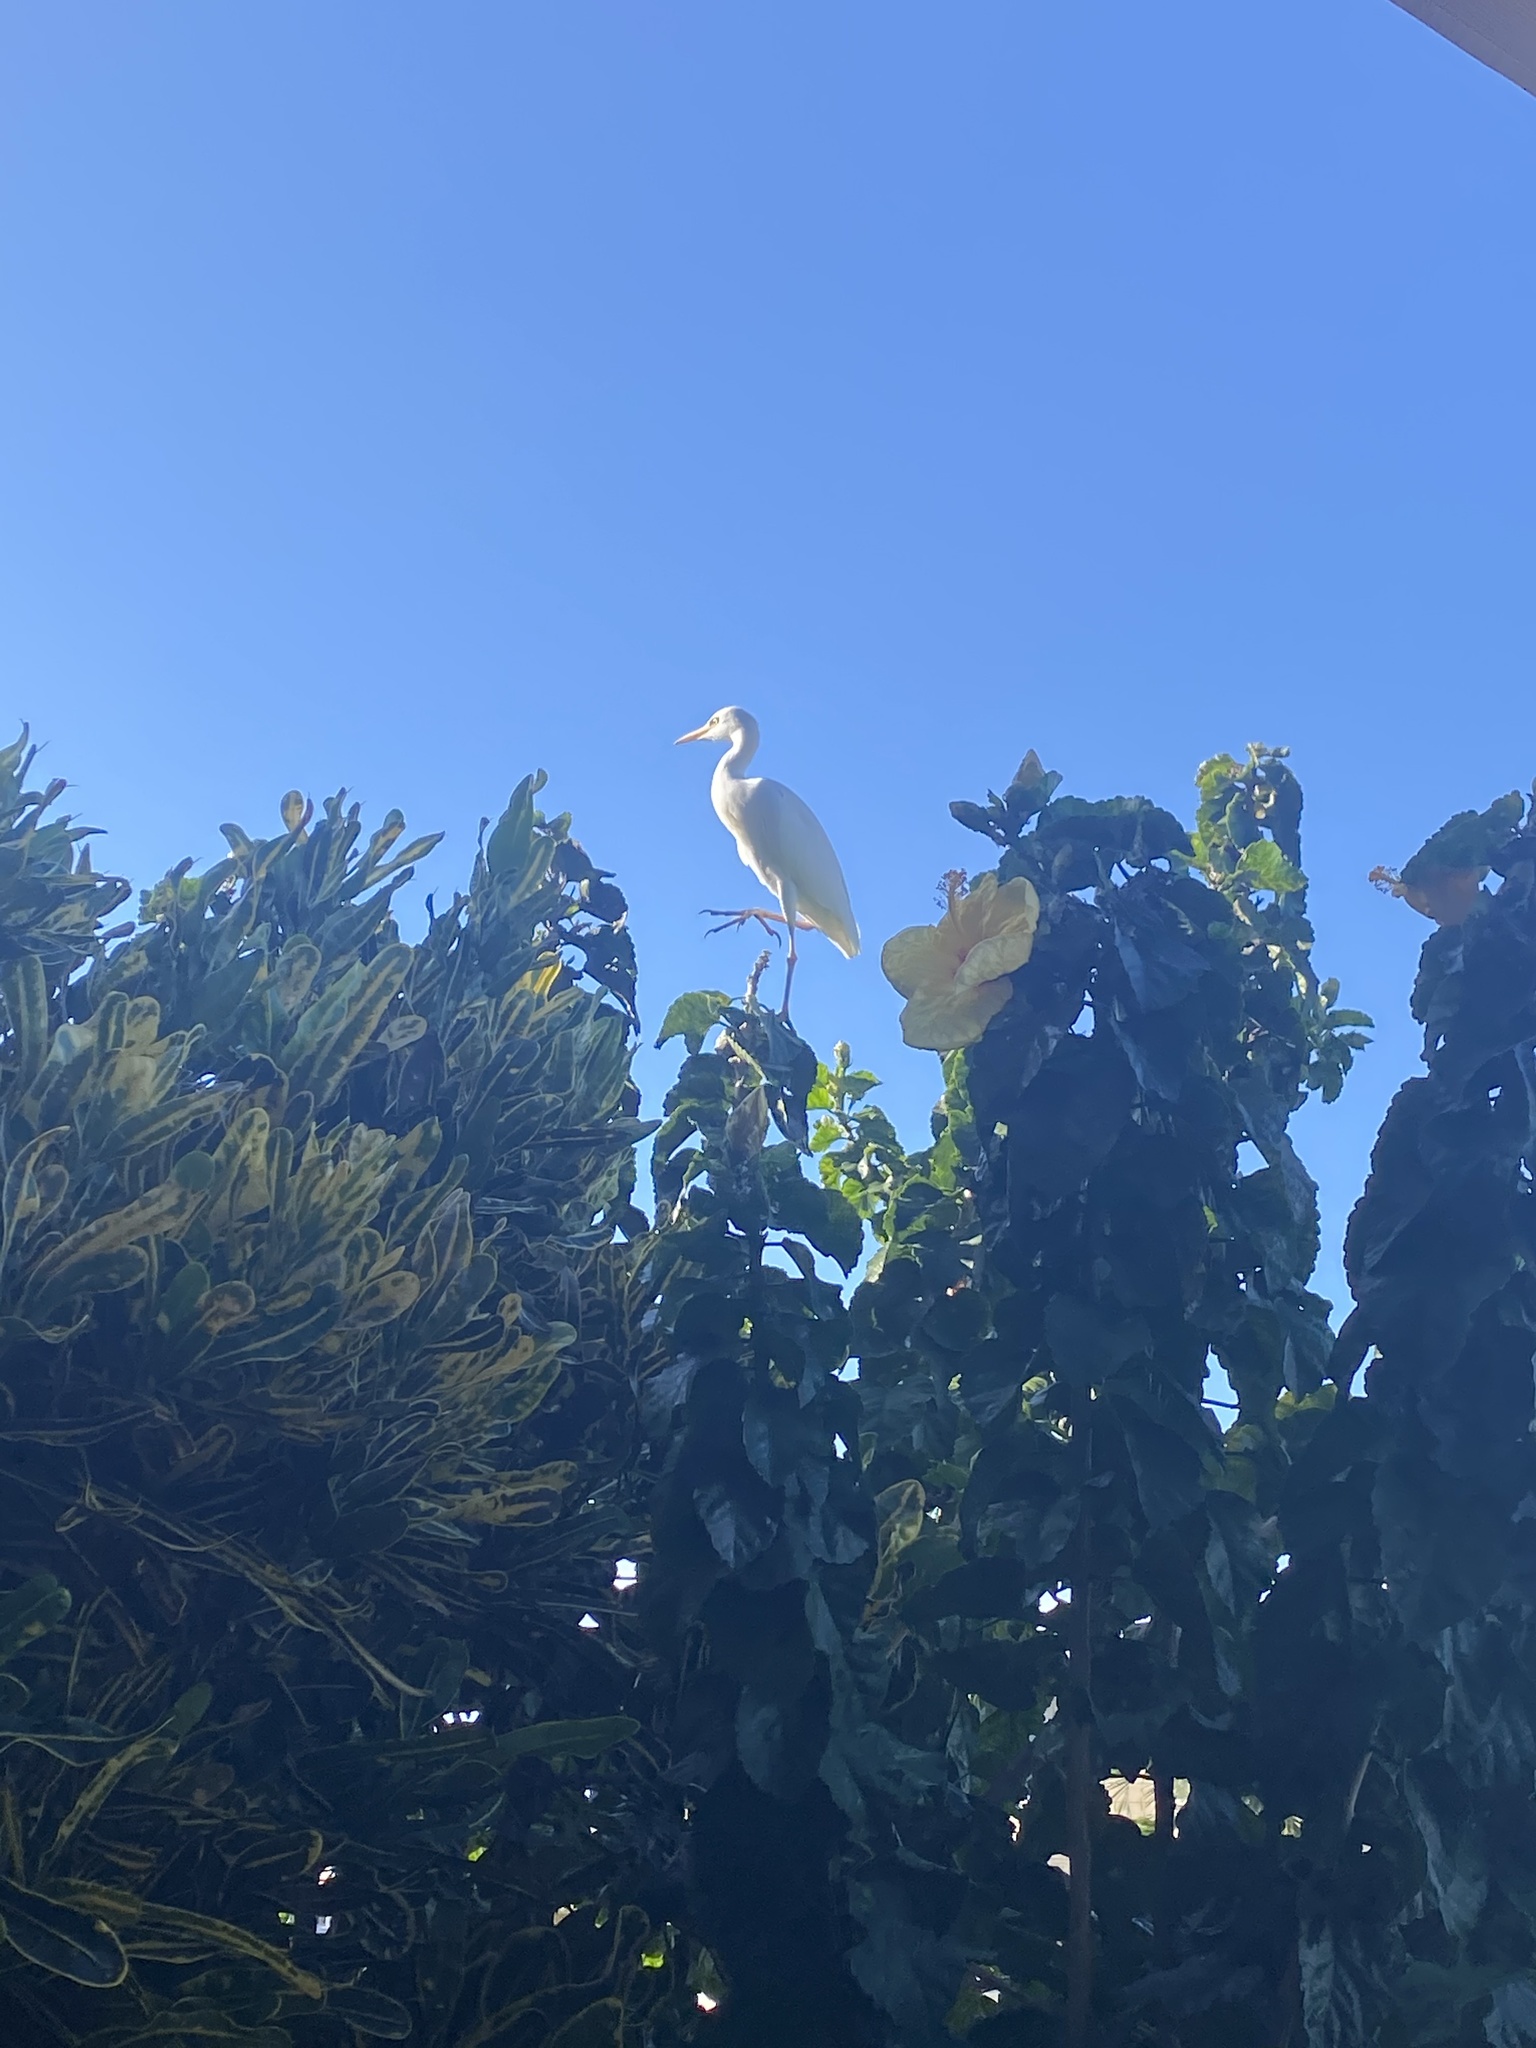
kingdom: Animalia
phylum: Chordata
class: Aves
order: Pelecaniformes
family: Ardeidae
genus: Bubulcus
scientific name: Bubulcus ibis
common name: Cattle egret
